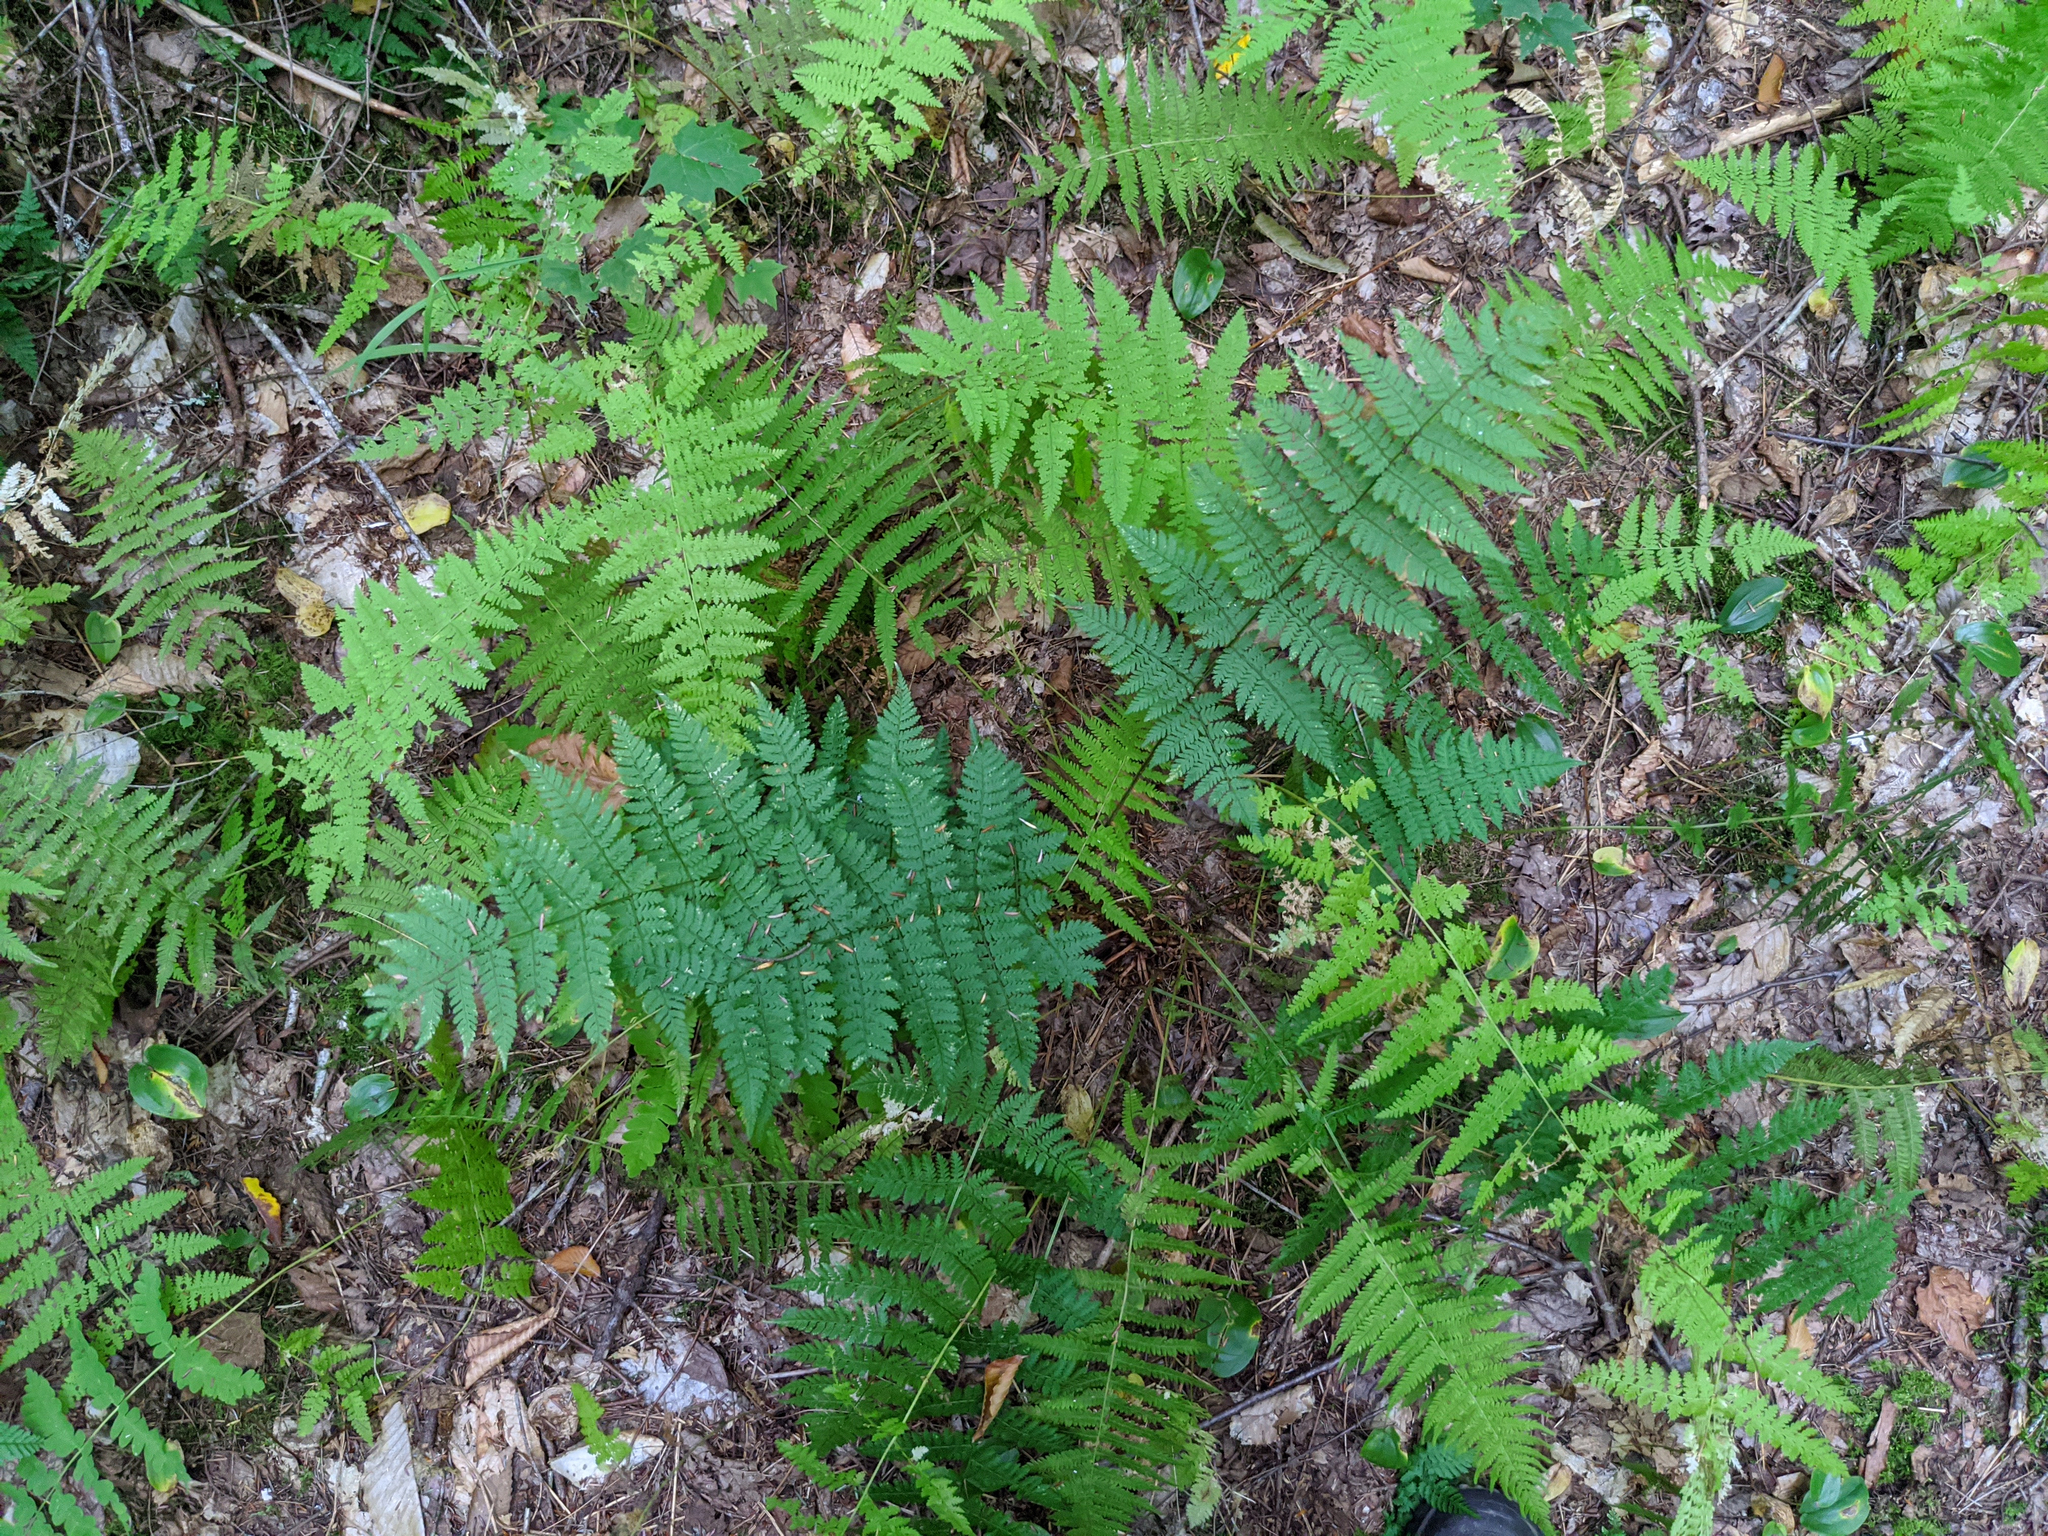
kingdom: Plantae
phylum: Tracheophyta
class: Polypodiopsida
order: Polypodiales
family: Dryopteridaceae
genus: Dryopteris
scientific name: Dryopteris intermedia
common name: Evergreen wood fern
